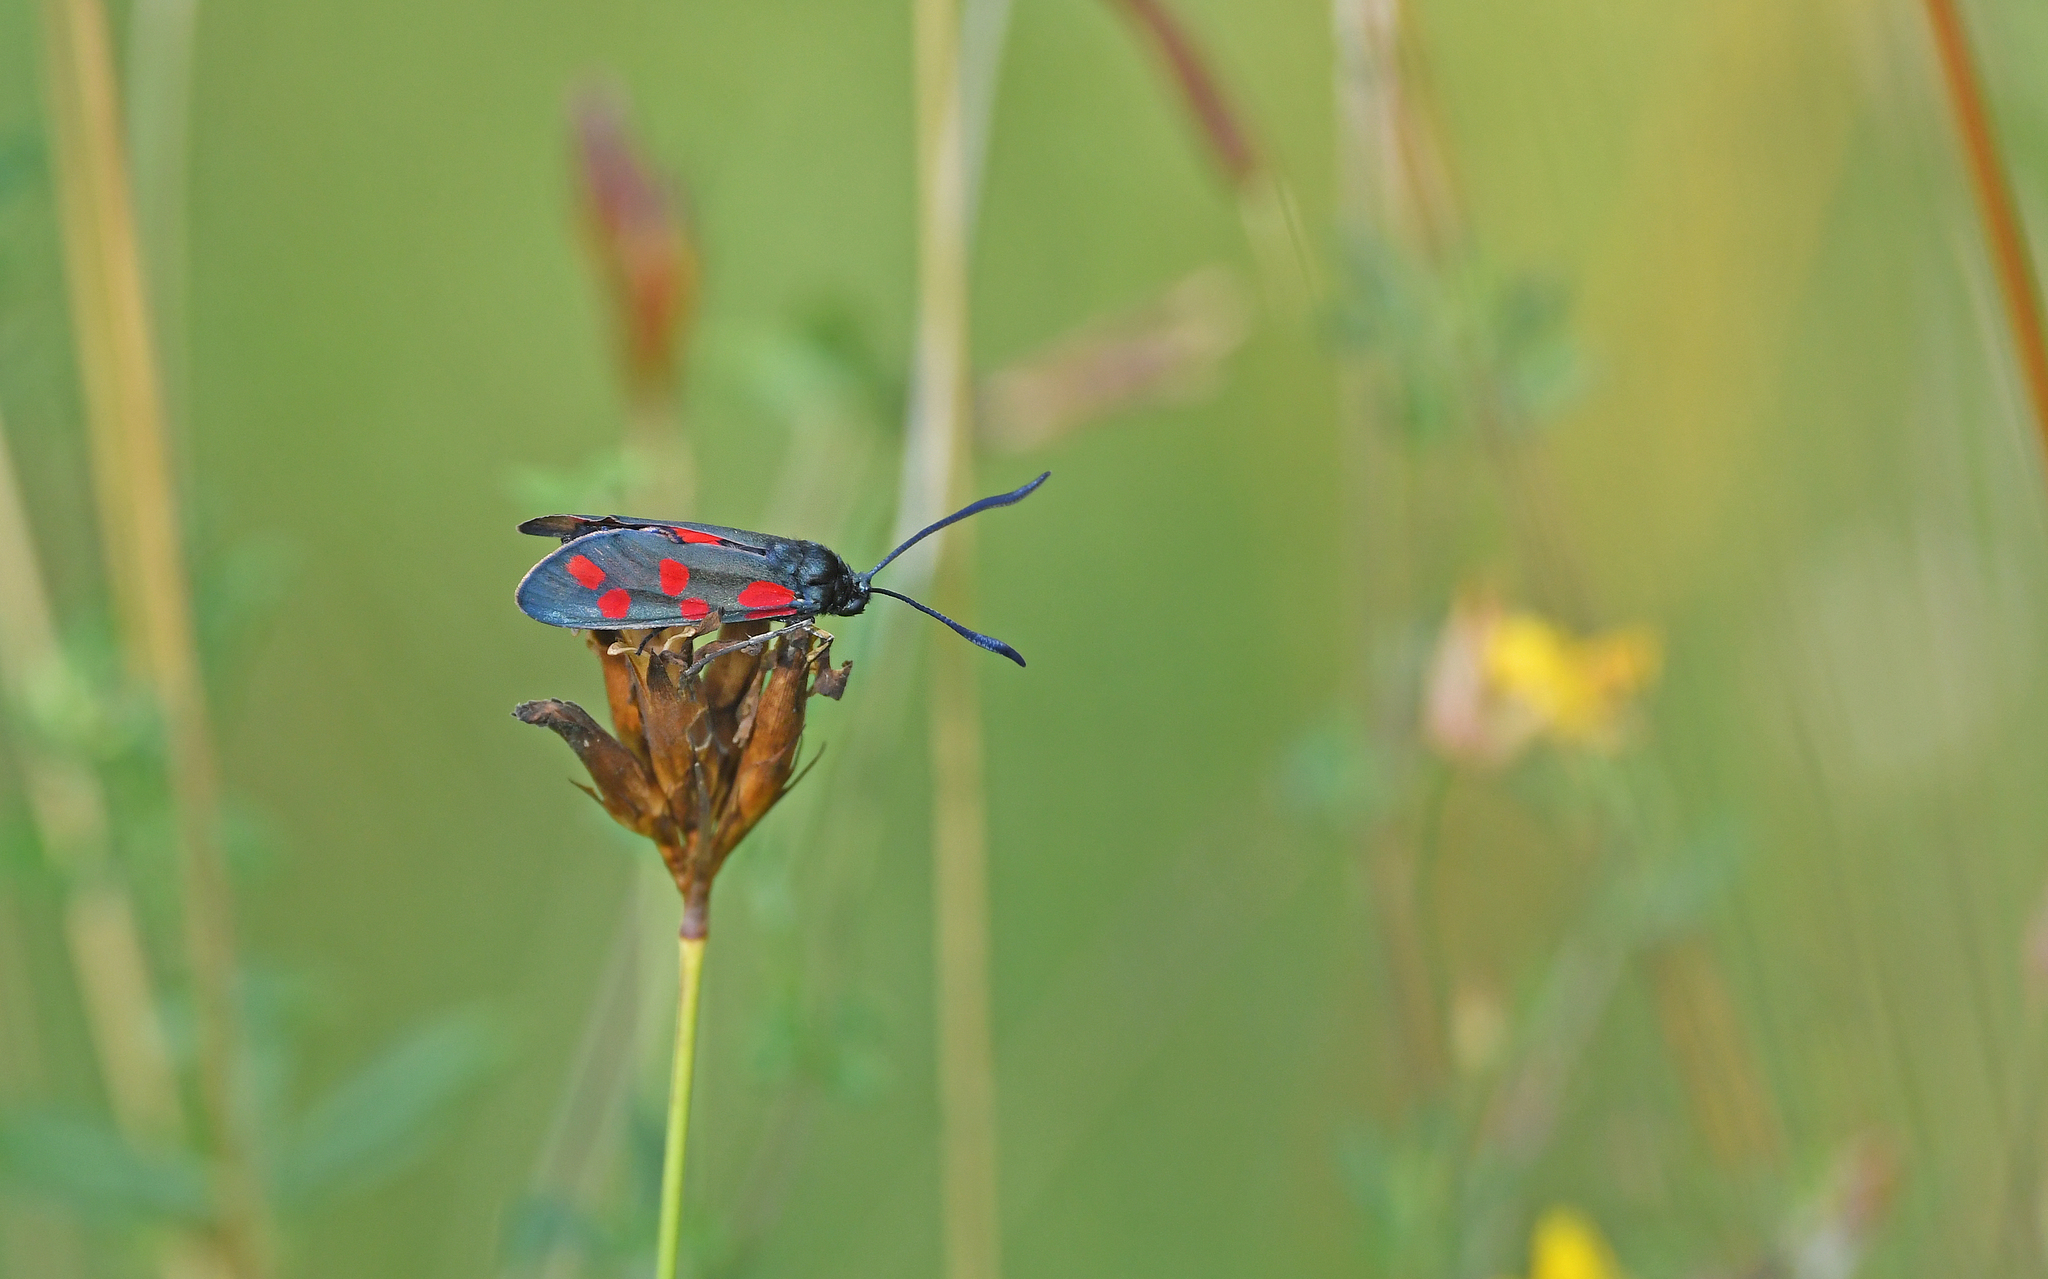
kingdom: Animalia
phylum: Arthropoda
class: Insecta
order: Lepidoptera
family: Zygaenidae
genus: Zygaena
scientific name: Zygaena filipendulae
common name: Six-spot burnet
